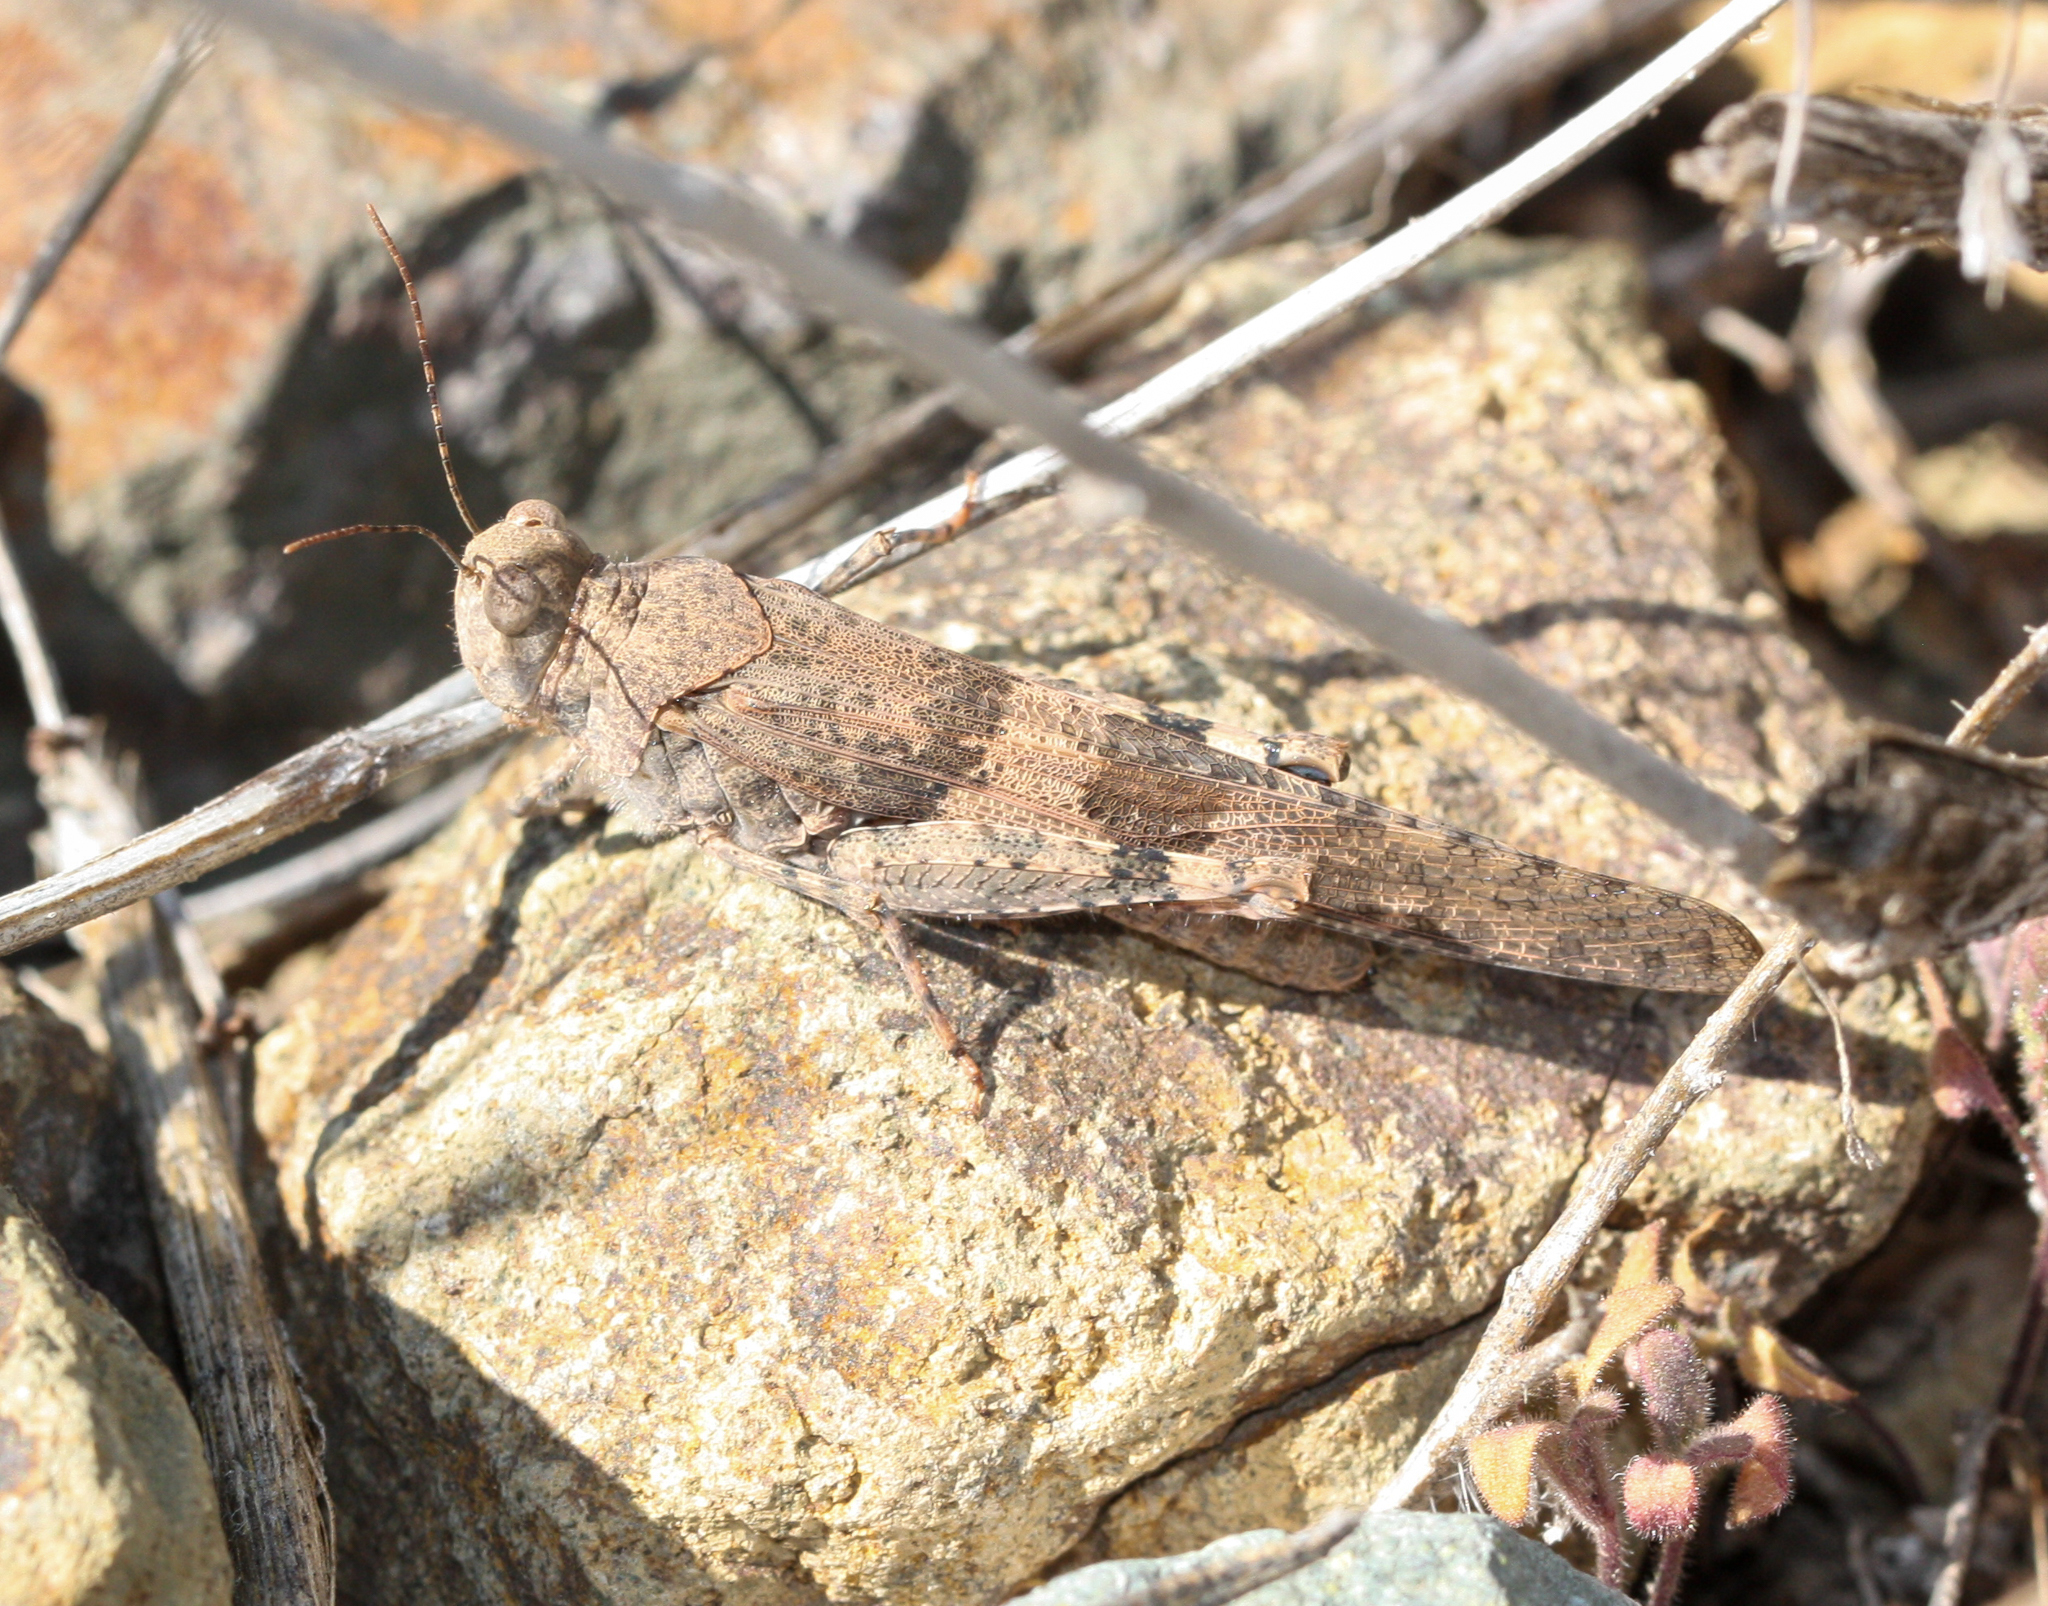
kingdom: Animalia
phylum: Arthropoda
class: Insecta
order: Orthoptera
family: Acrididae
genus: Trimerotropis
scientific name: Trimerotropis pallidipennis
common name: Pallid-winged grasshopper
